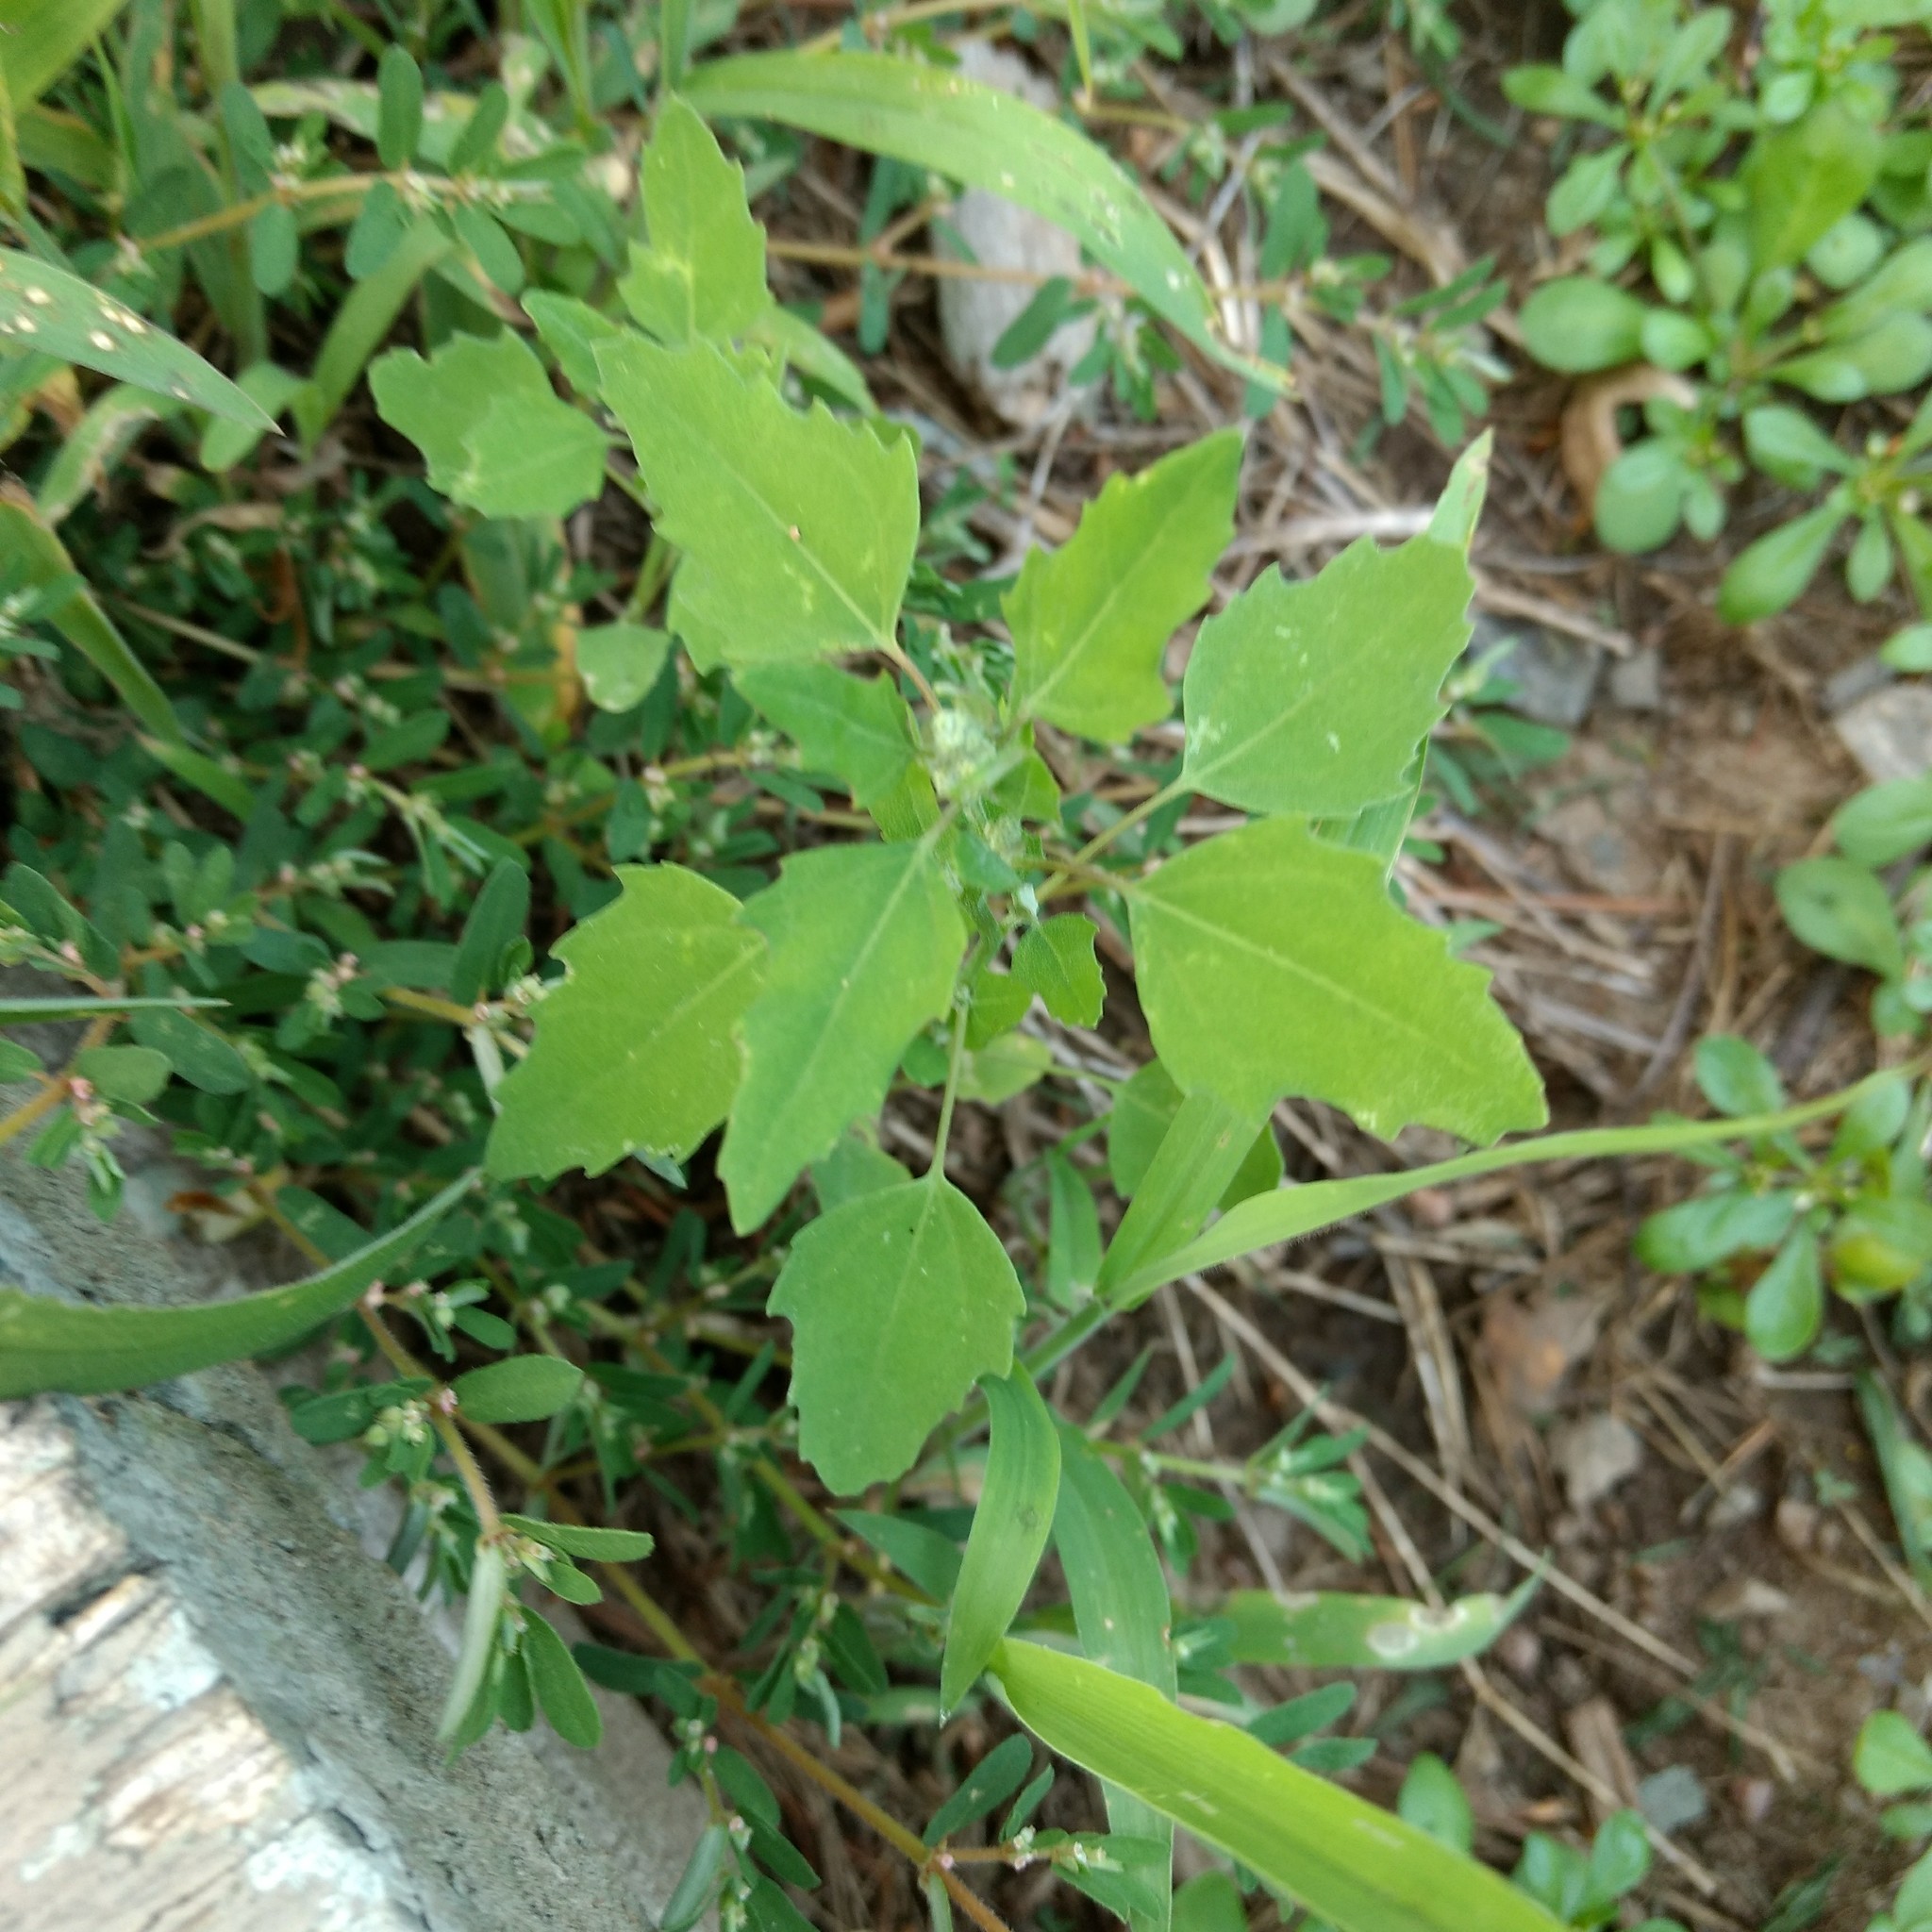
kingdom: Plantae
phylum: Tracheophyta
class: Magnoliopsida
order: Caryophyllales
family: Amaranthaceae
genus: Chenopodium
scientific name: Chenopodium album
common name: Fat-hen
